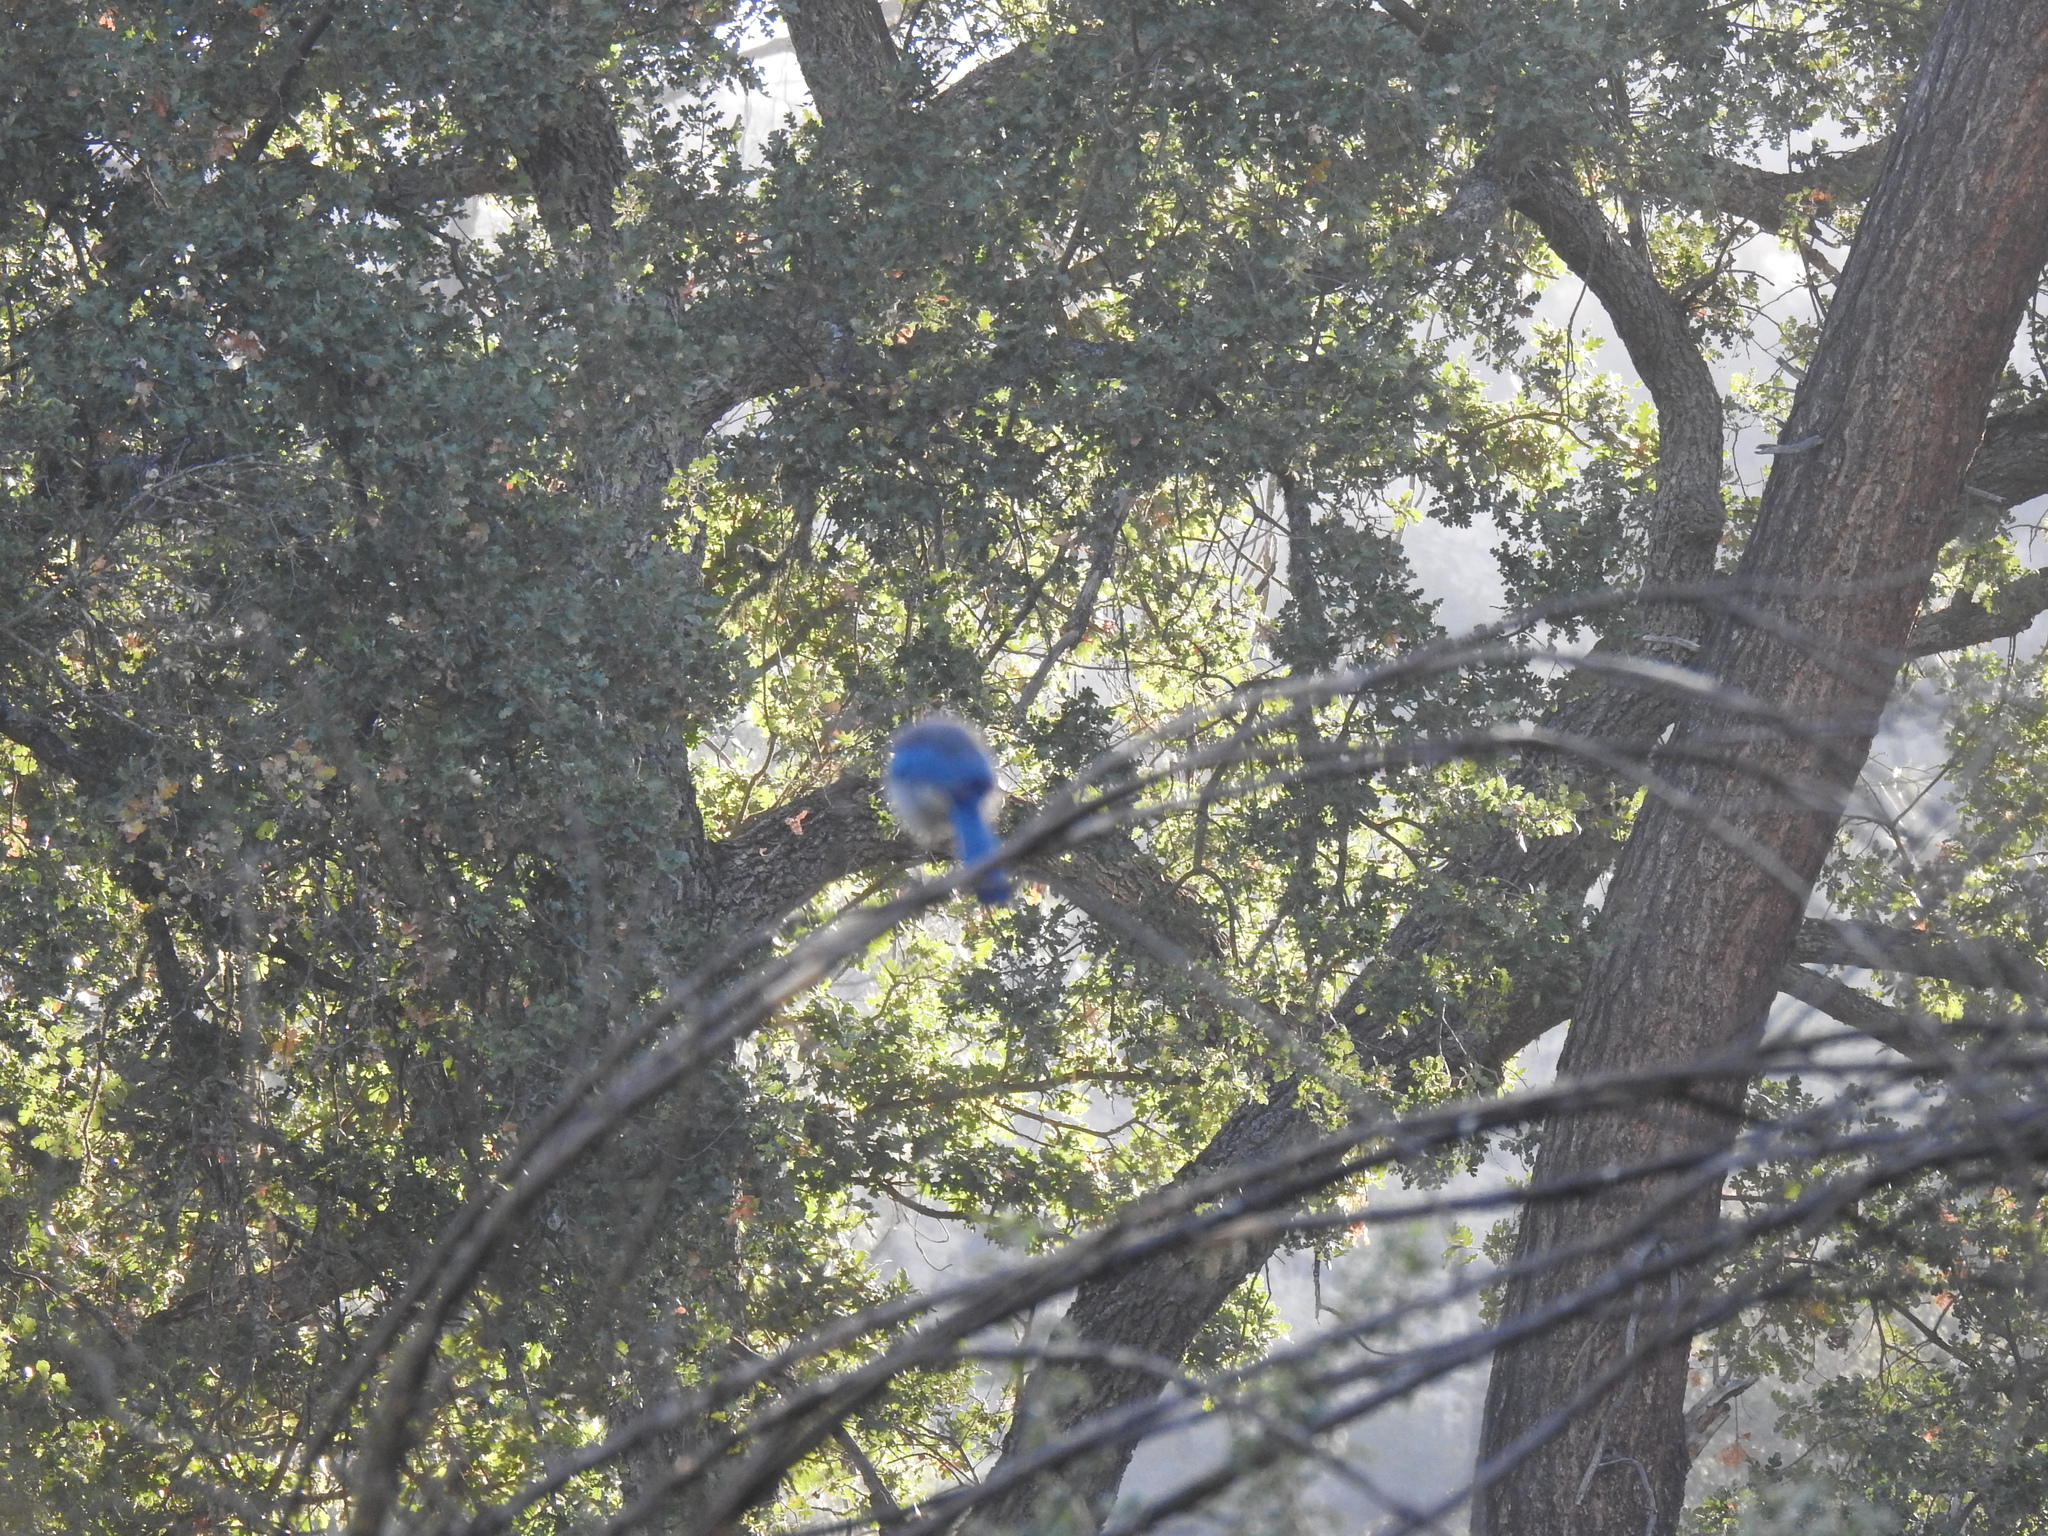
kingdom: Animalia
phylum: Chordata
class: Aves
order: Passeriformes
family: Corvidae
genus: Aphelocoma
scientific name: Aphelocoma californica
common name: California scrub-jay
